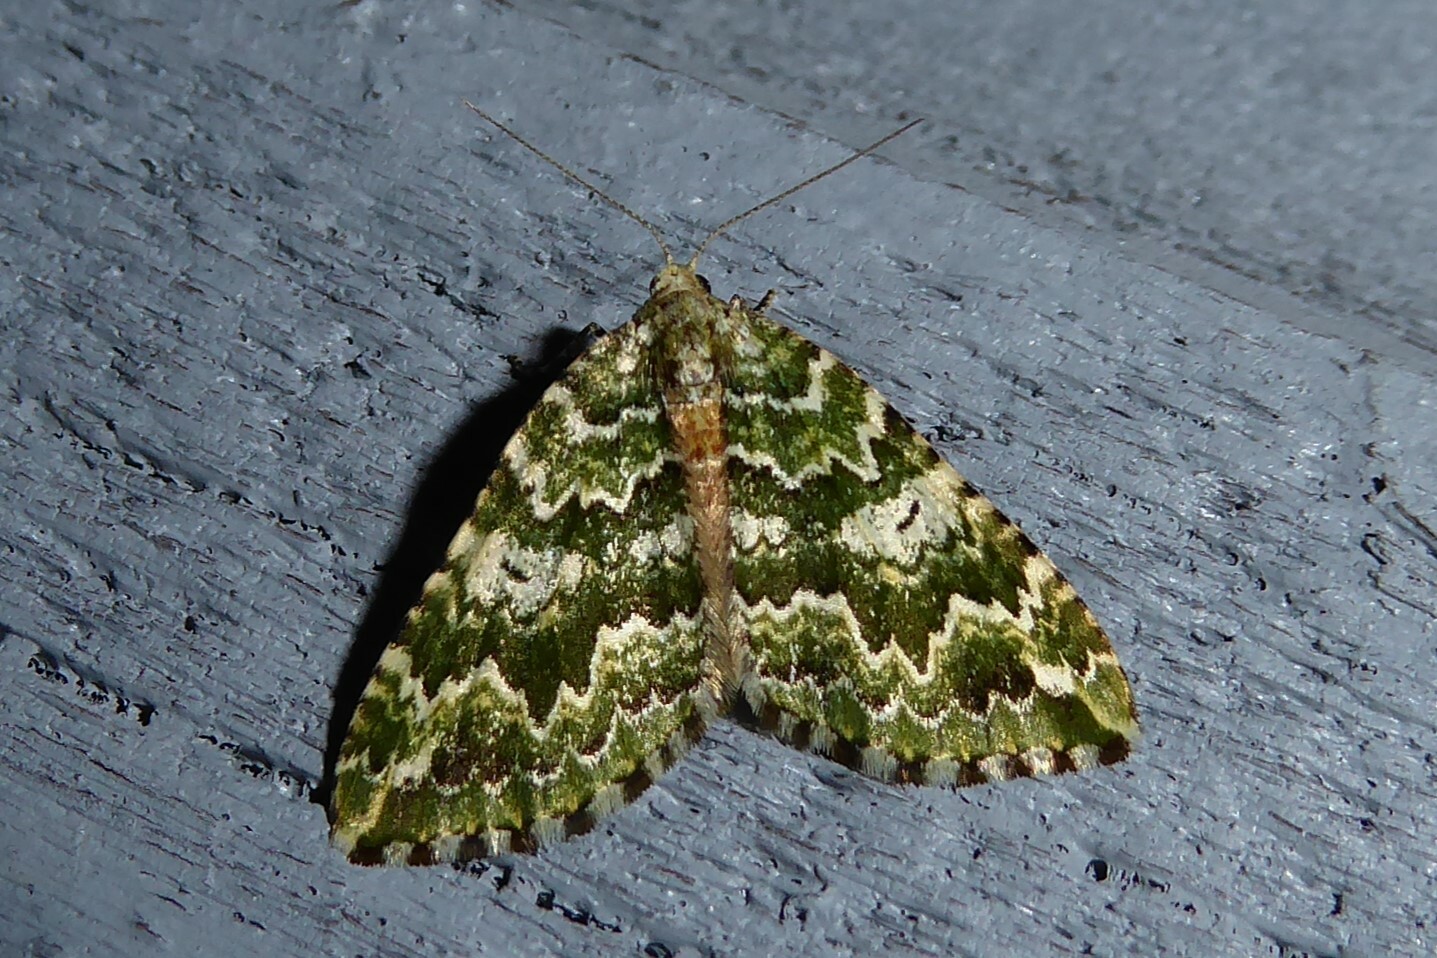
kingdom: Animalia
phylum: Arthropoda
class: Insecta
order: Lepidoptera
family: Geometridae
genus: Asaphodes
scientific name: Asaphodes beata
